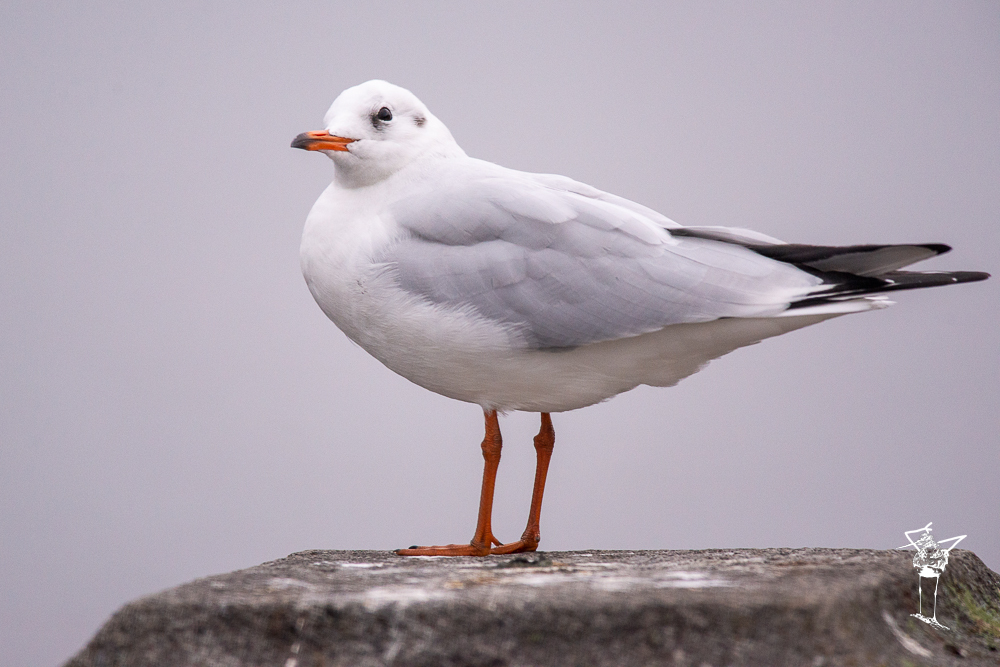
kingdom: Animalia
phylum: Chordata
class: Aves
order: Charadriiformes
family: Laridae
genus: Chroicocephalus
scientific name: Chroicocephalus ridibundus
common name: Black-headed gull
